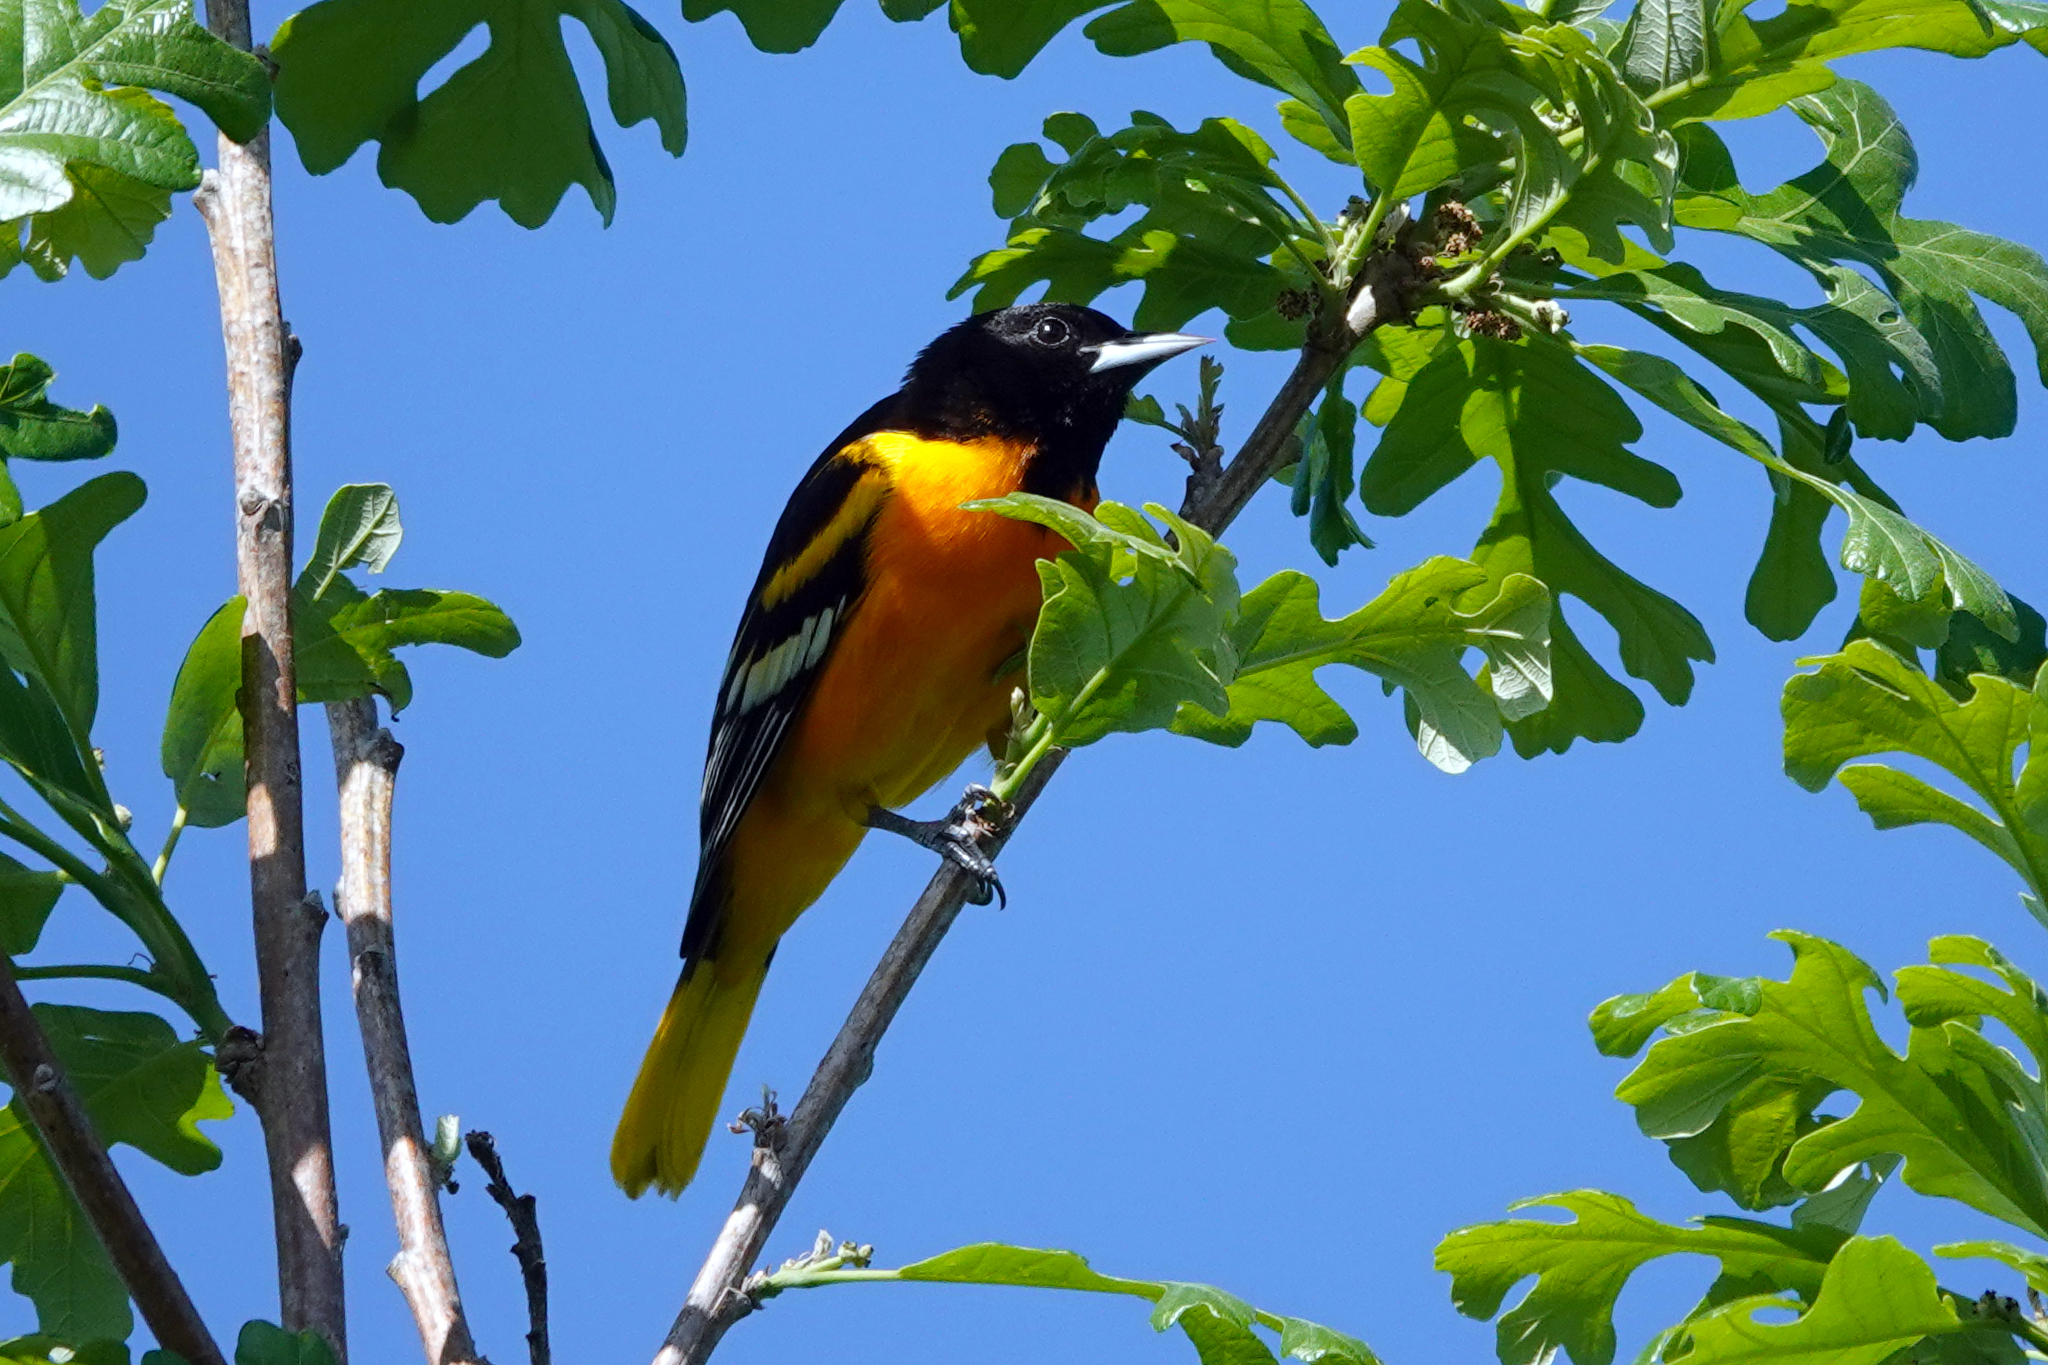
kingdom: Animalia
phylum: Chordata
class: Aves
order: Passeriformes
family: Icteridae
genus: Icterus
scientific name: Icterus galbula
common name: Baltimore oriole
